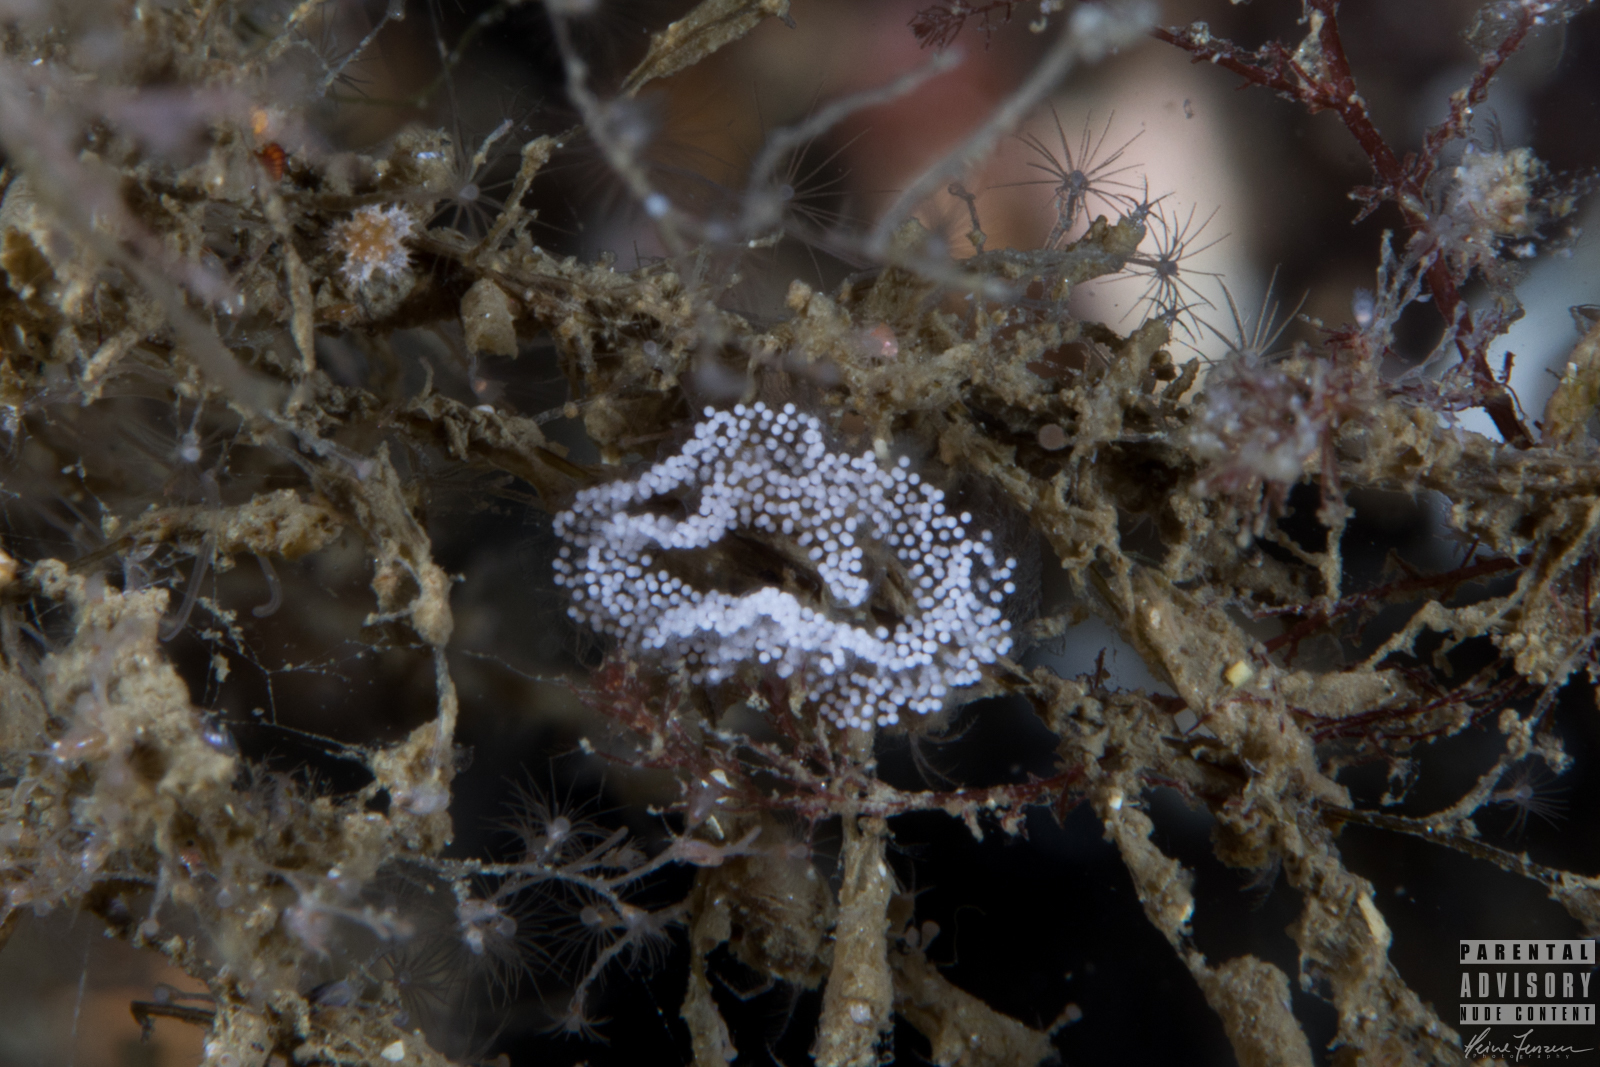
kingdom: Animalia
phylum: Mollusca
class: Gastropoda
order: Nudibranchia
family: Eubranchidae
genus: Amphorina
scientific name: Amphorina farrani
